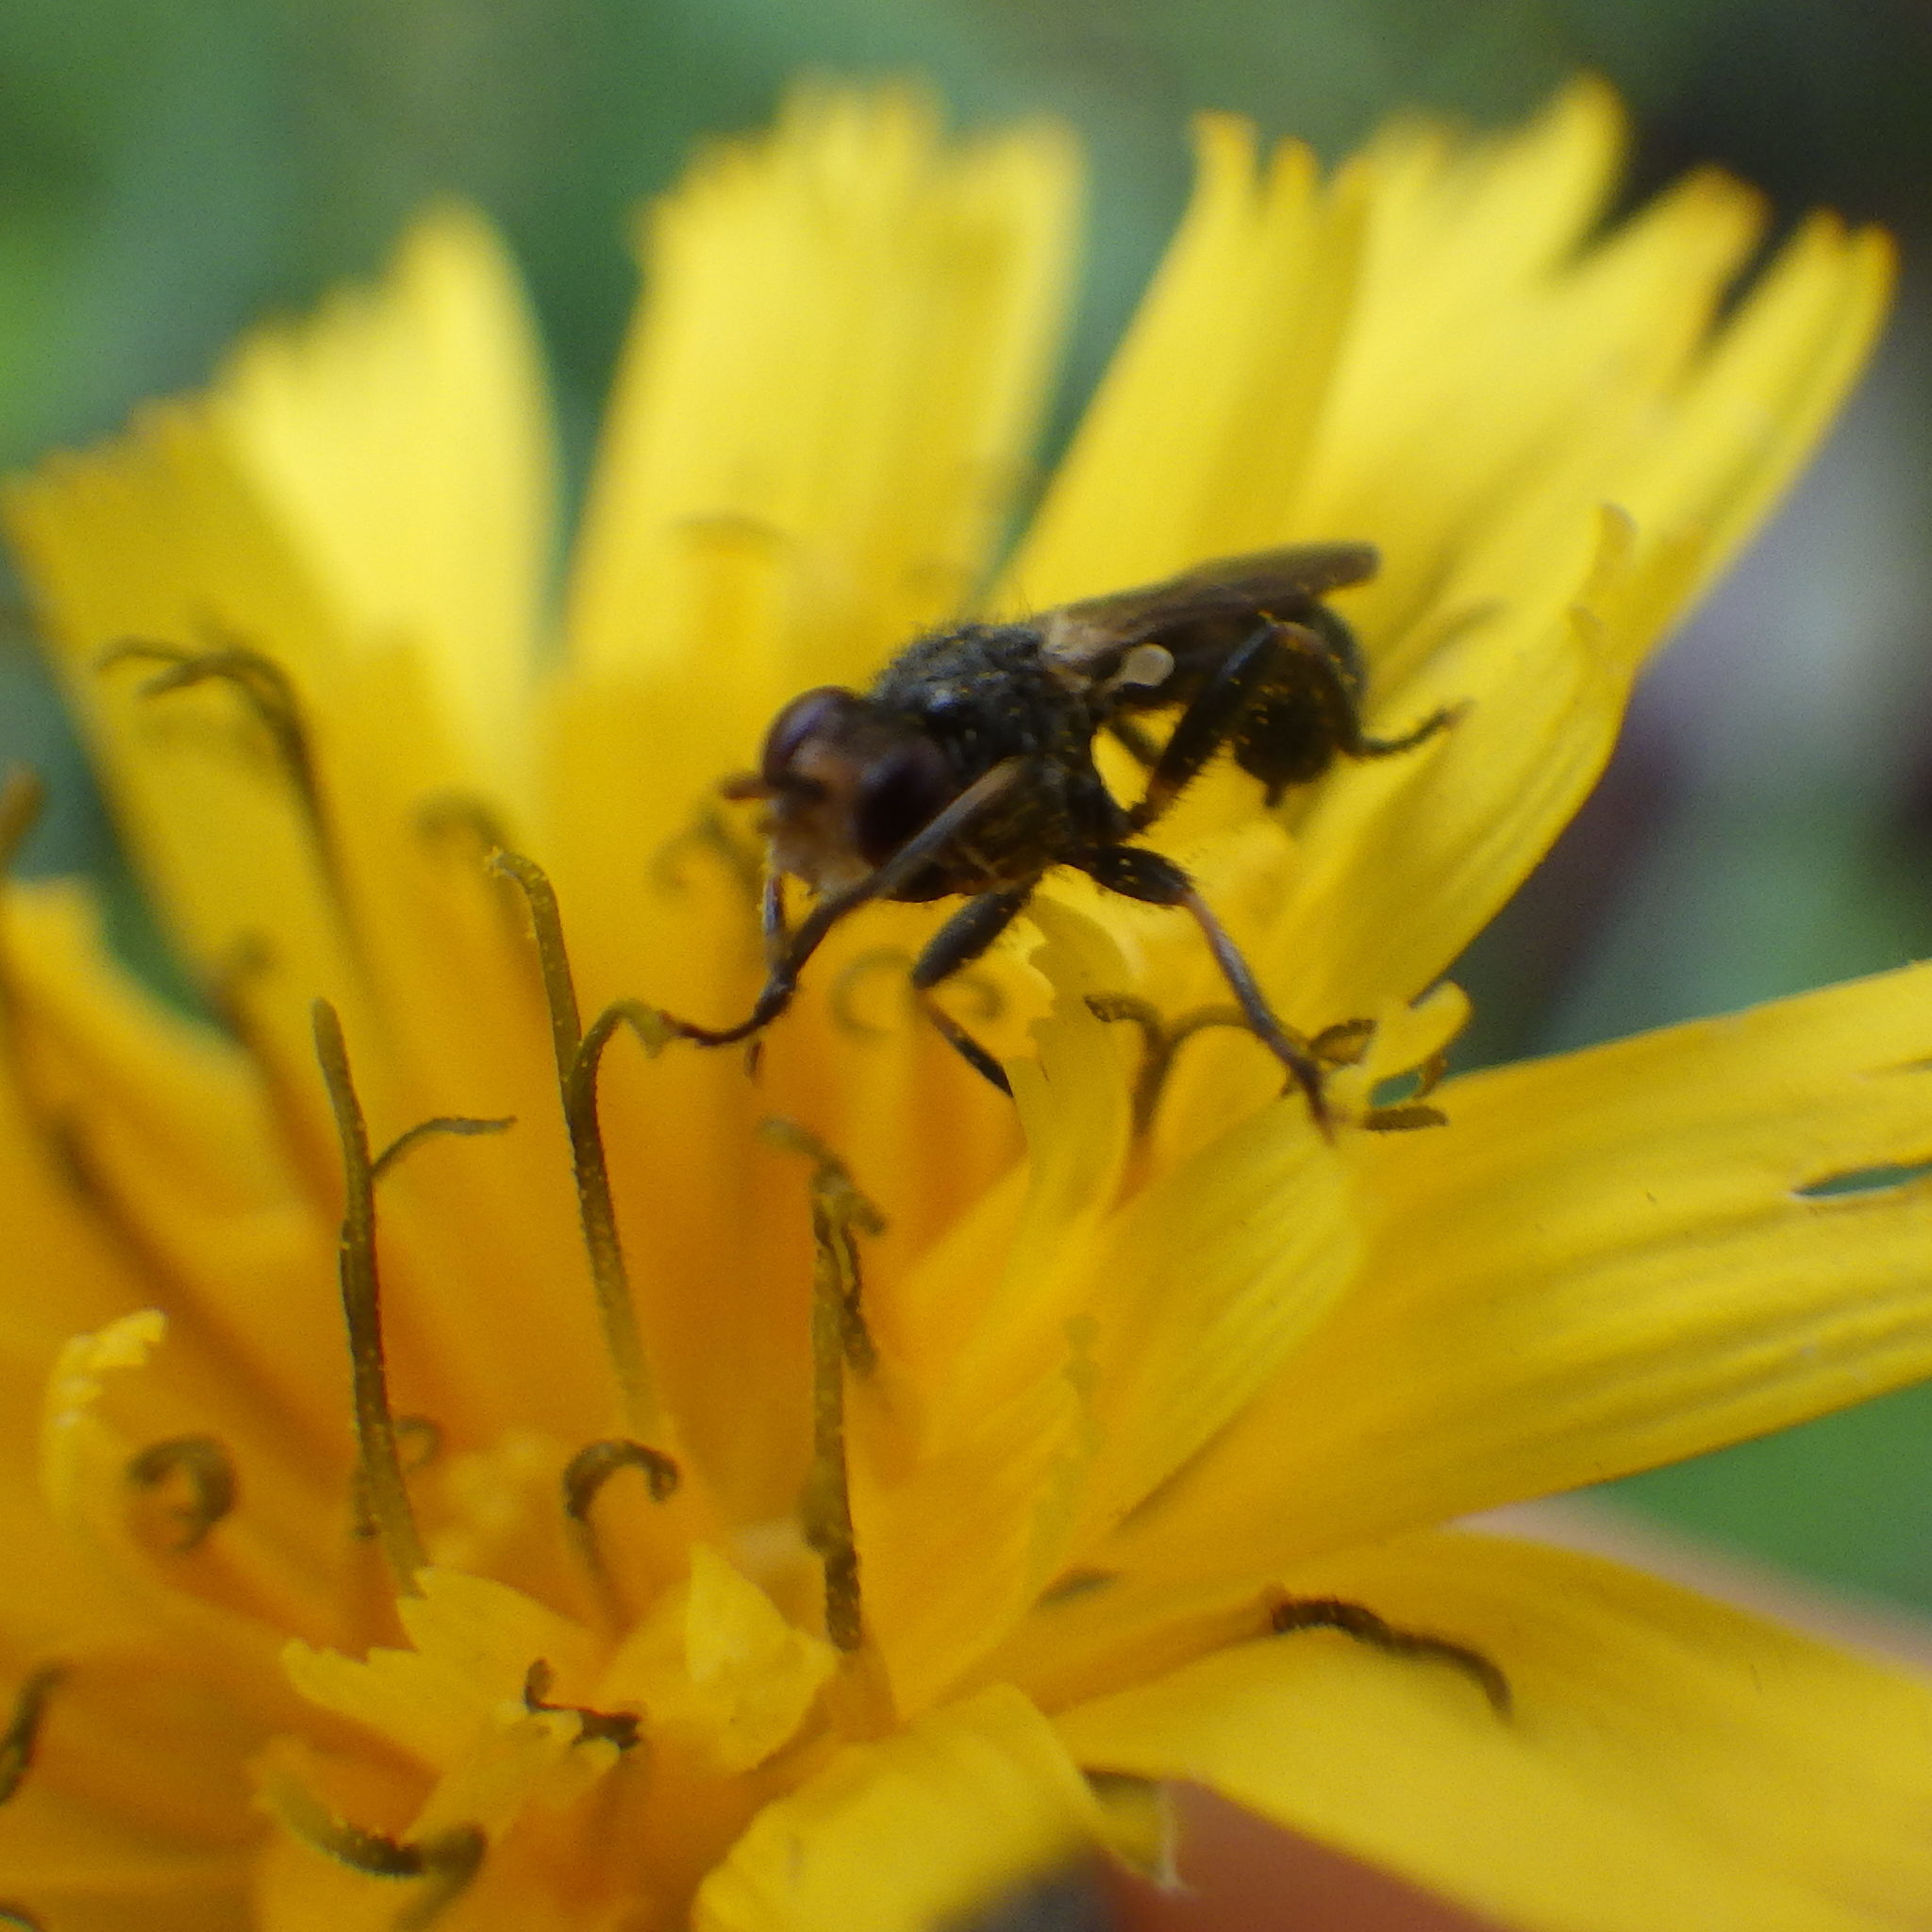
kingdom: Animalia
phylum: Arthropoda
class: Insecta
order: Diptera
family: Conopidae
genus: Thecophora
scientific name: Thecophora propinqua
